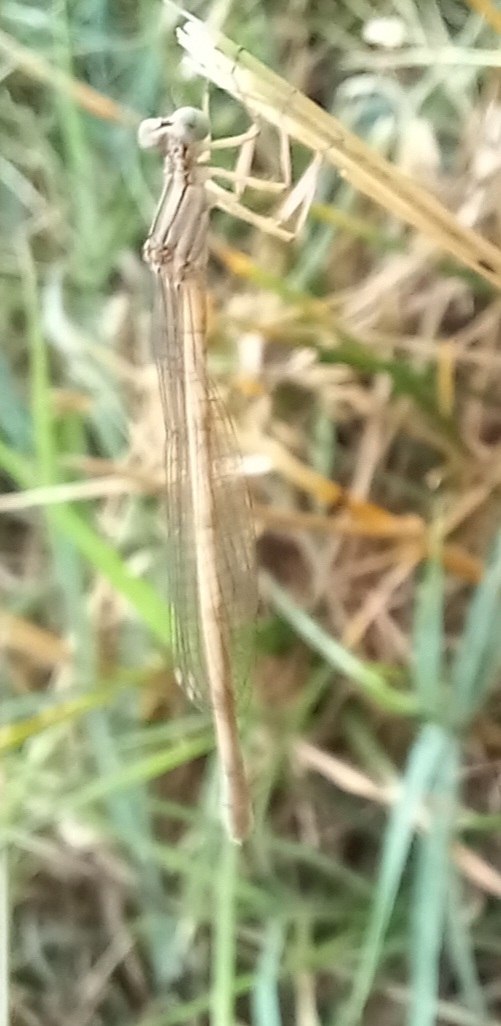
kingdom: Animalia
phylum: Arthropoda
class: Insecta
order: Odonata
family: Platycnemididae
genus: Platycnemis
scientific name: Platycnemis latipes
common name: White featherleg
